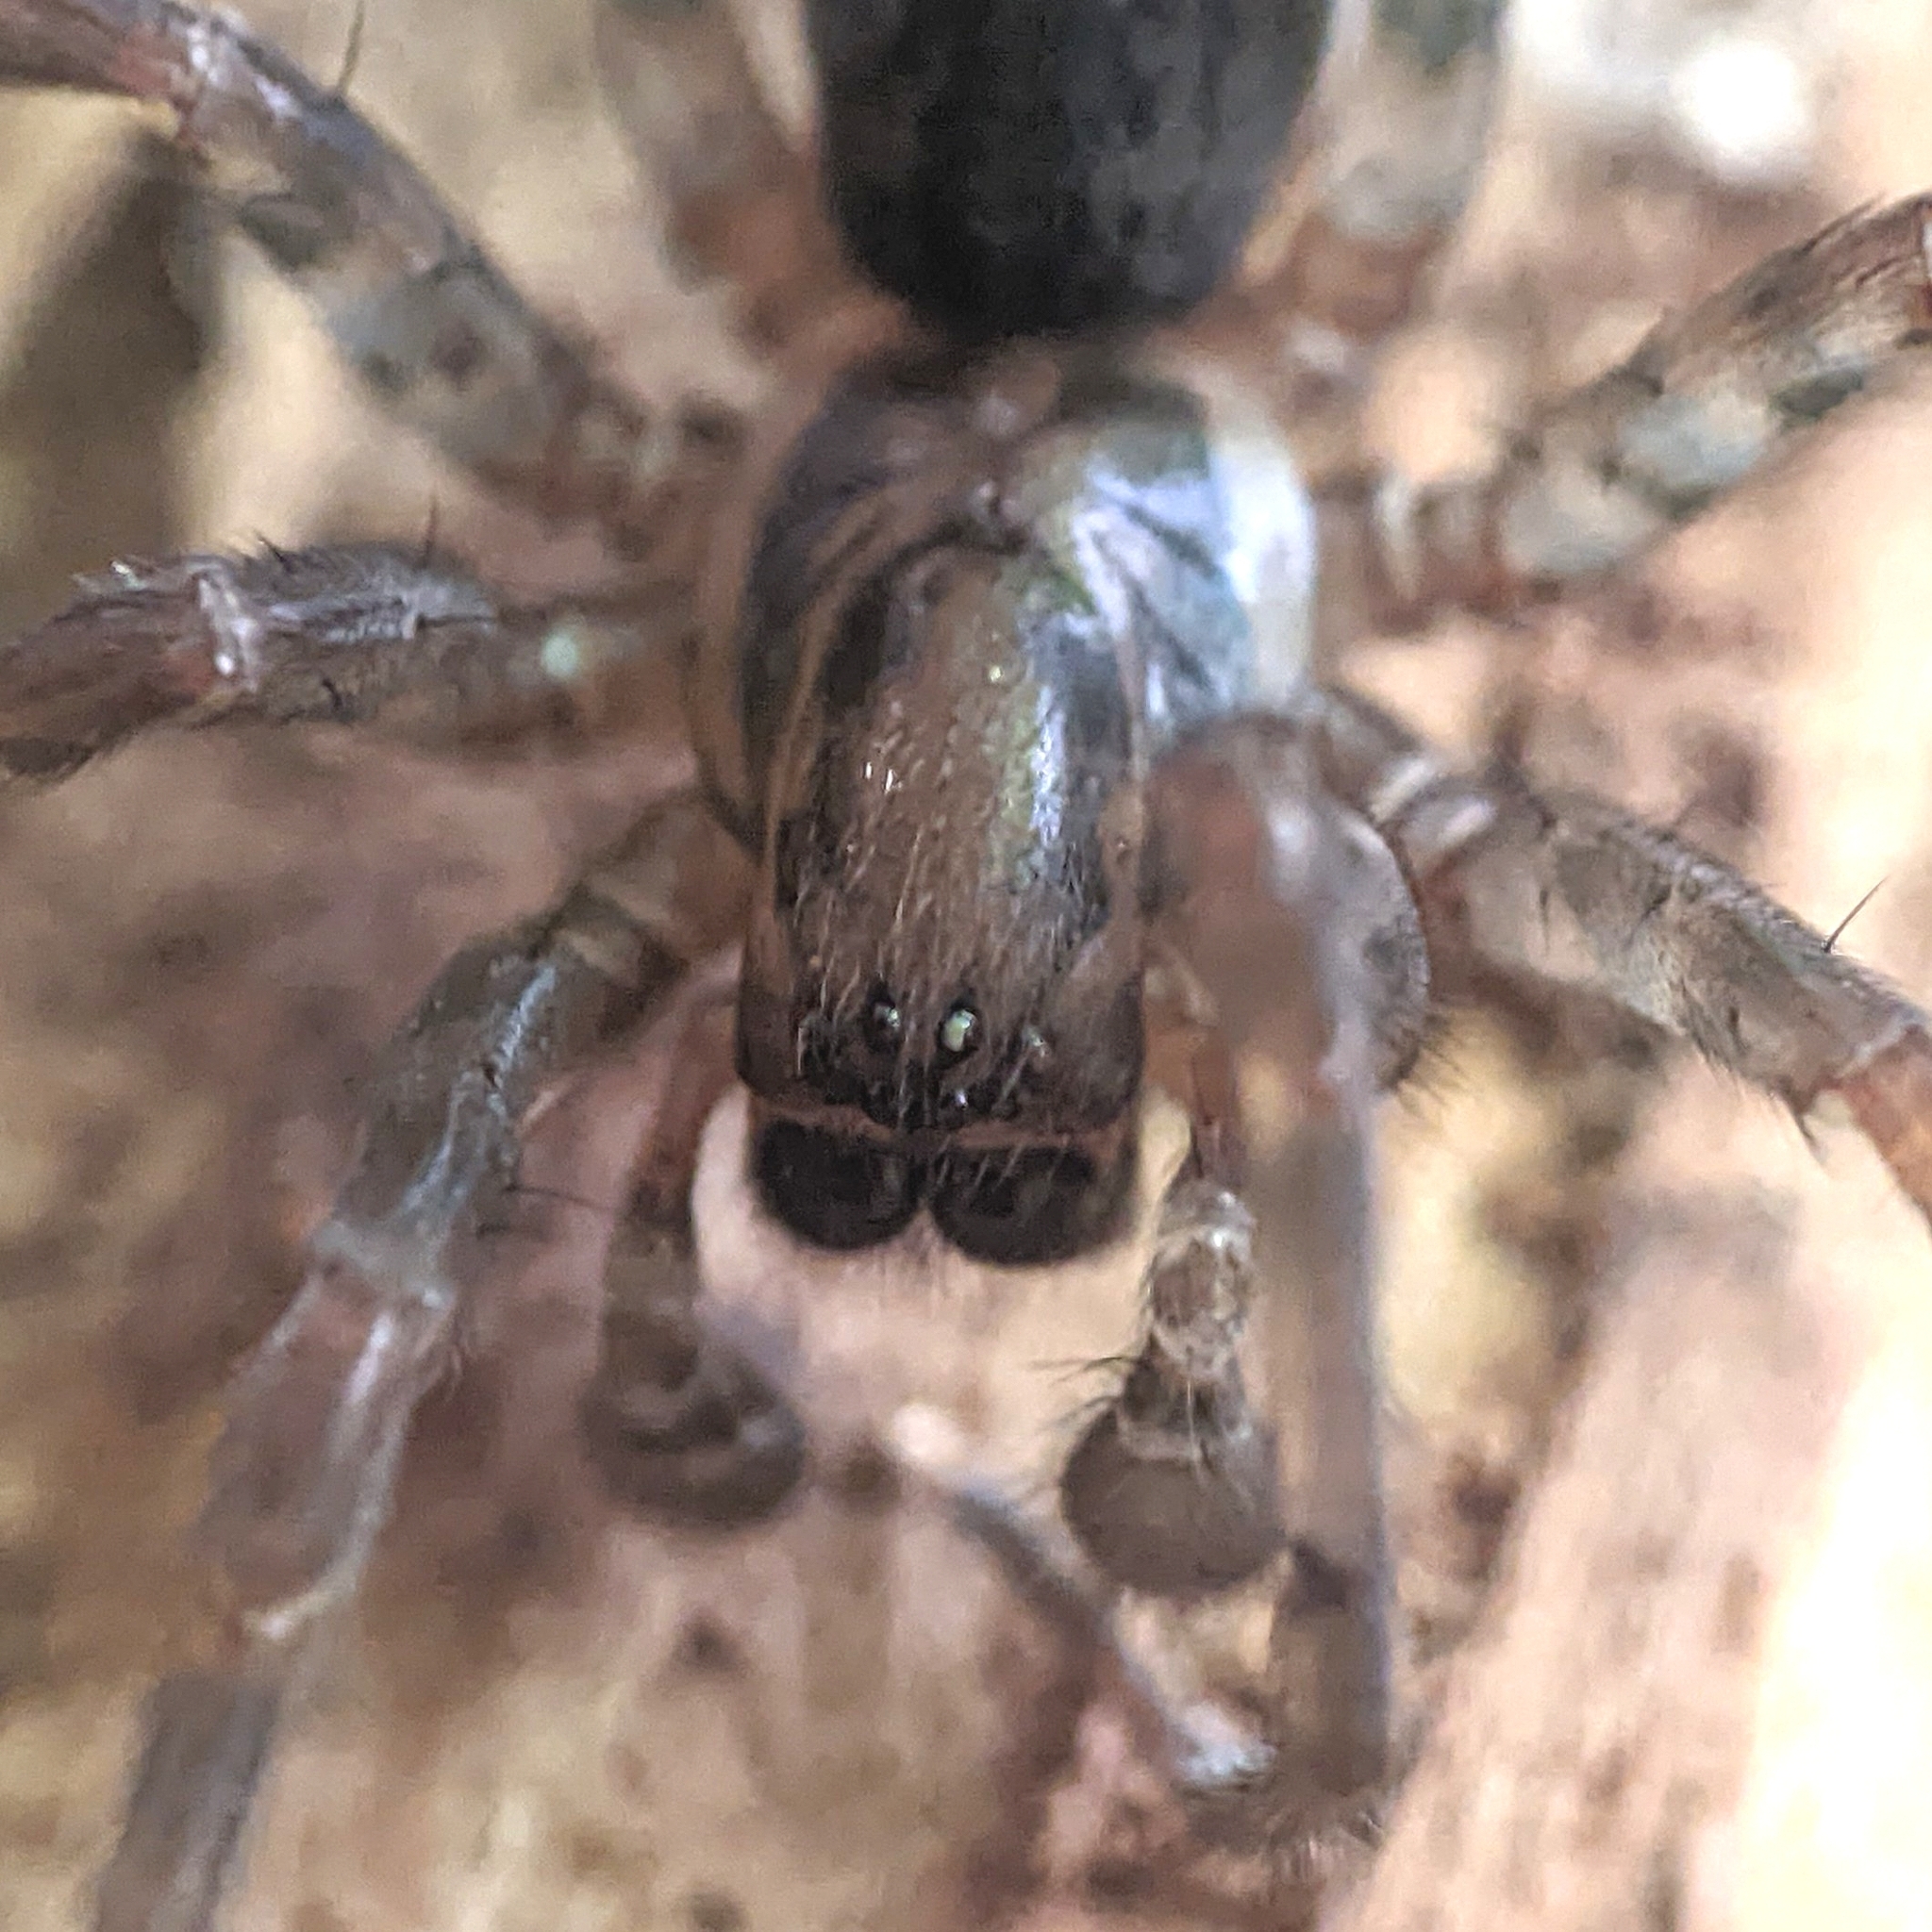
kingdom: Animalia
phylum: Arthropoda
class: Arachnida
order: Araneae
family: Agelenidae
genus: Coras
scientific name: Coras
